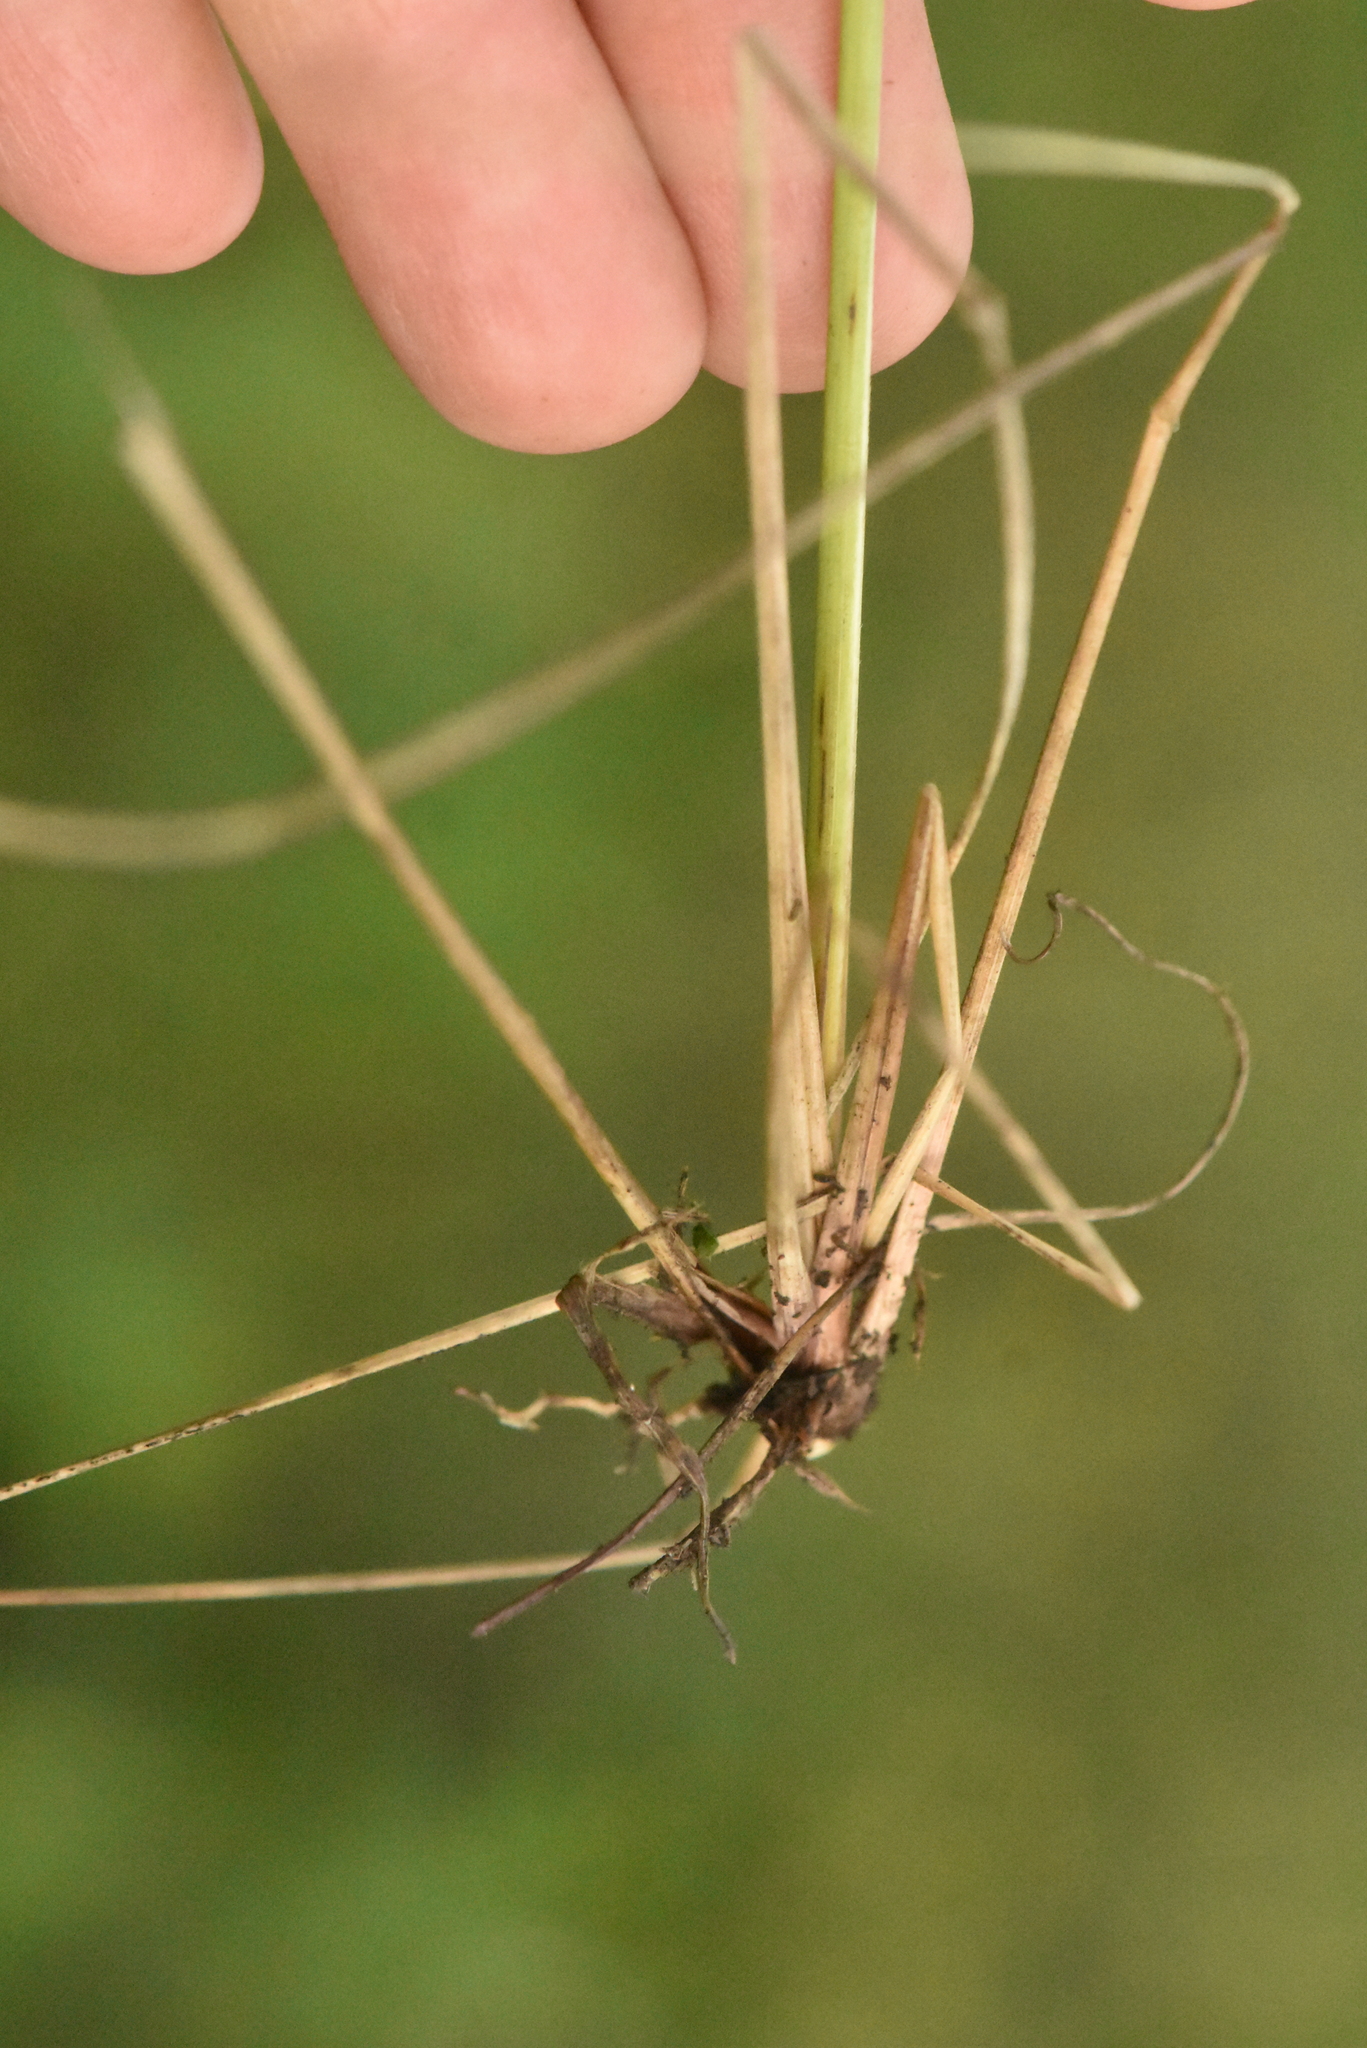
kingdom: Plantae
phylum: Tracheophyta
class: Liliopsida
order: Poales
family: Poaceae
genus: Stipa
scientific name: Stipa capillata
